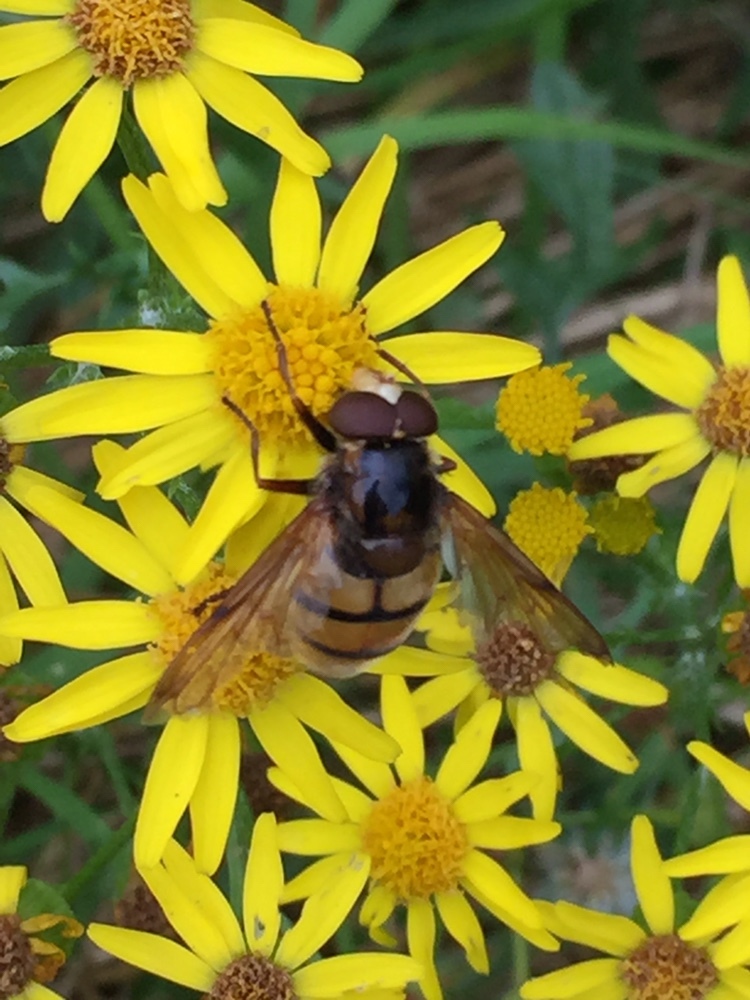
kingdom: Animalia
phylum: Arthropoda
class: Insecta
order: Diptera
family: Syrphidae
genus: Volucella
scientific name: Volucella inanis
